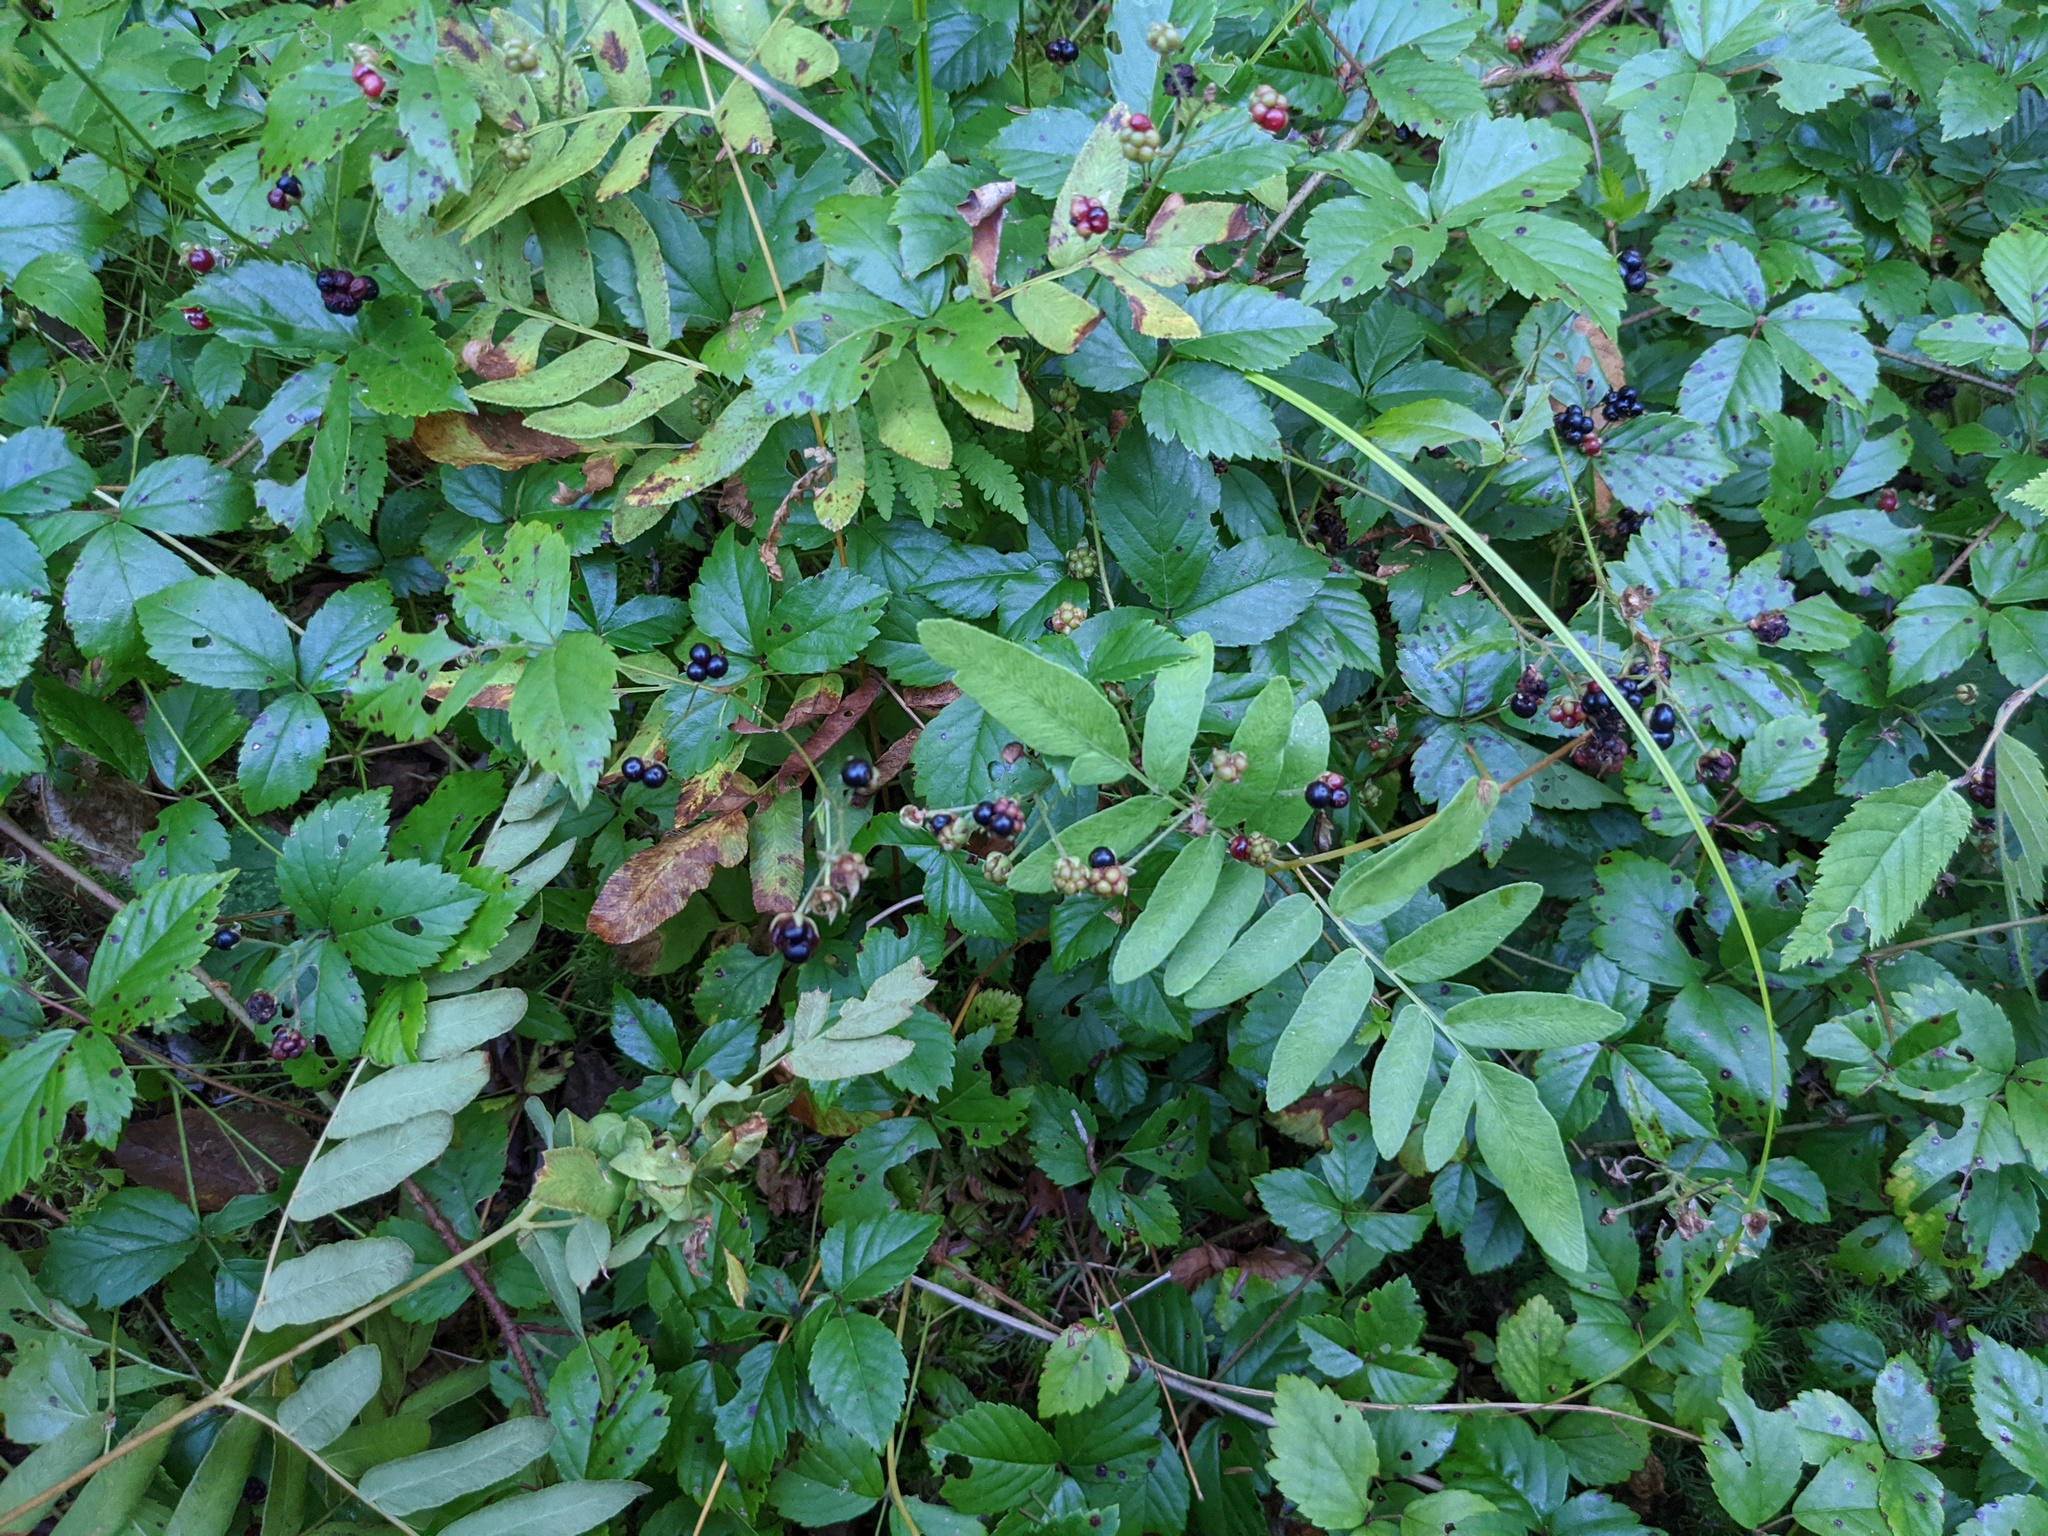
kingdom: Plantae
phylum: Tracheophyta
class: Magnoliopsida
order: Rosales
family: Rosaceae
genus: Rubus
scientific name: Rubus hispidus
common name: Running blackberry
